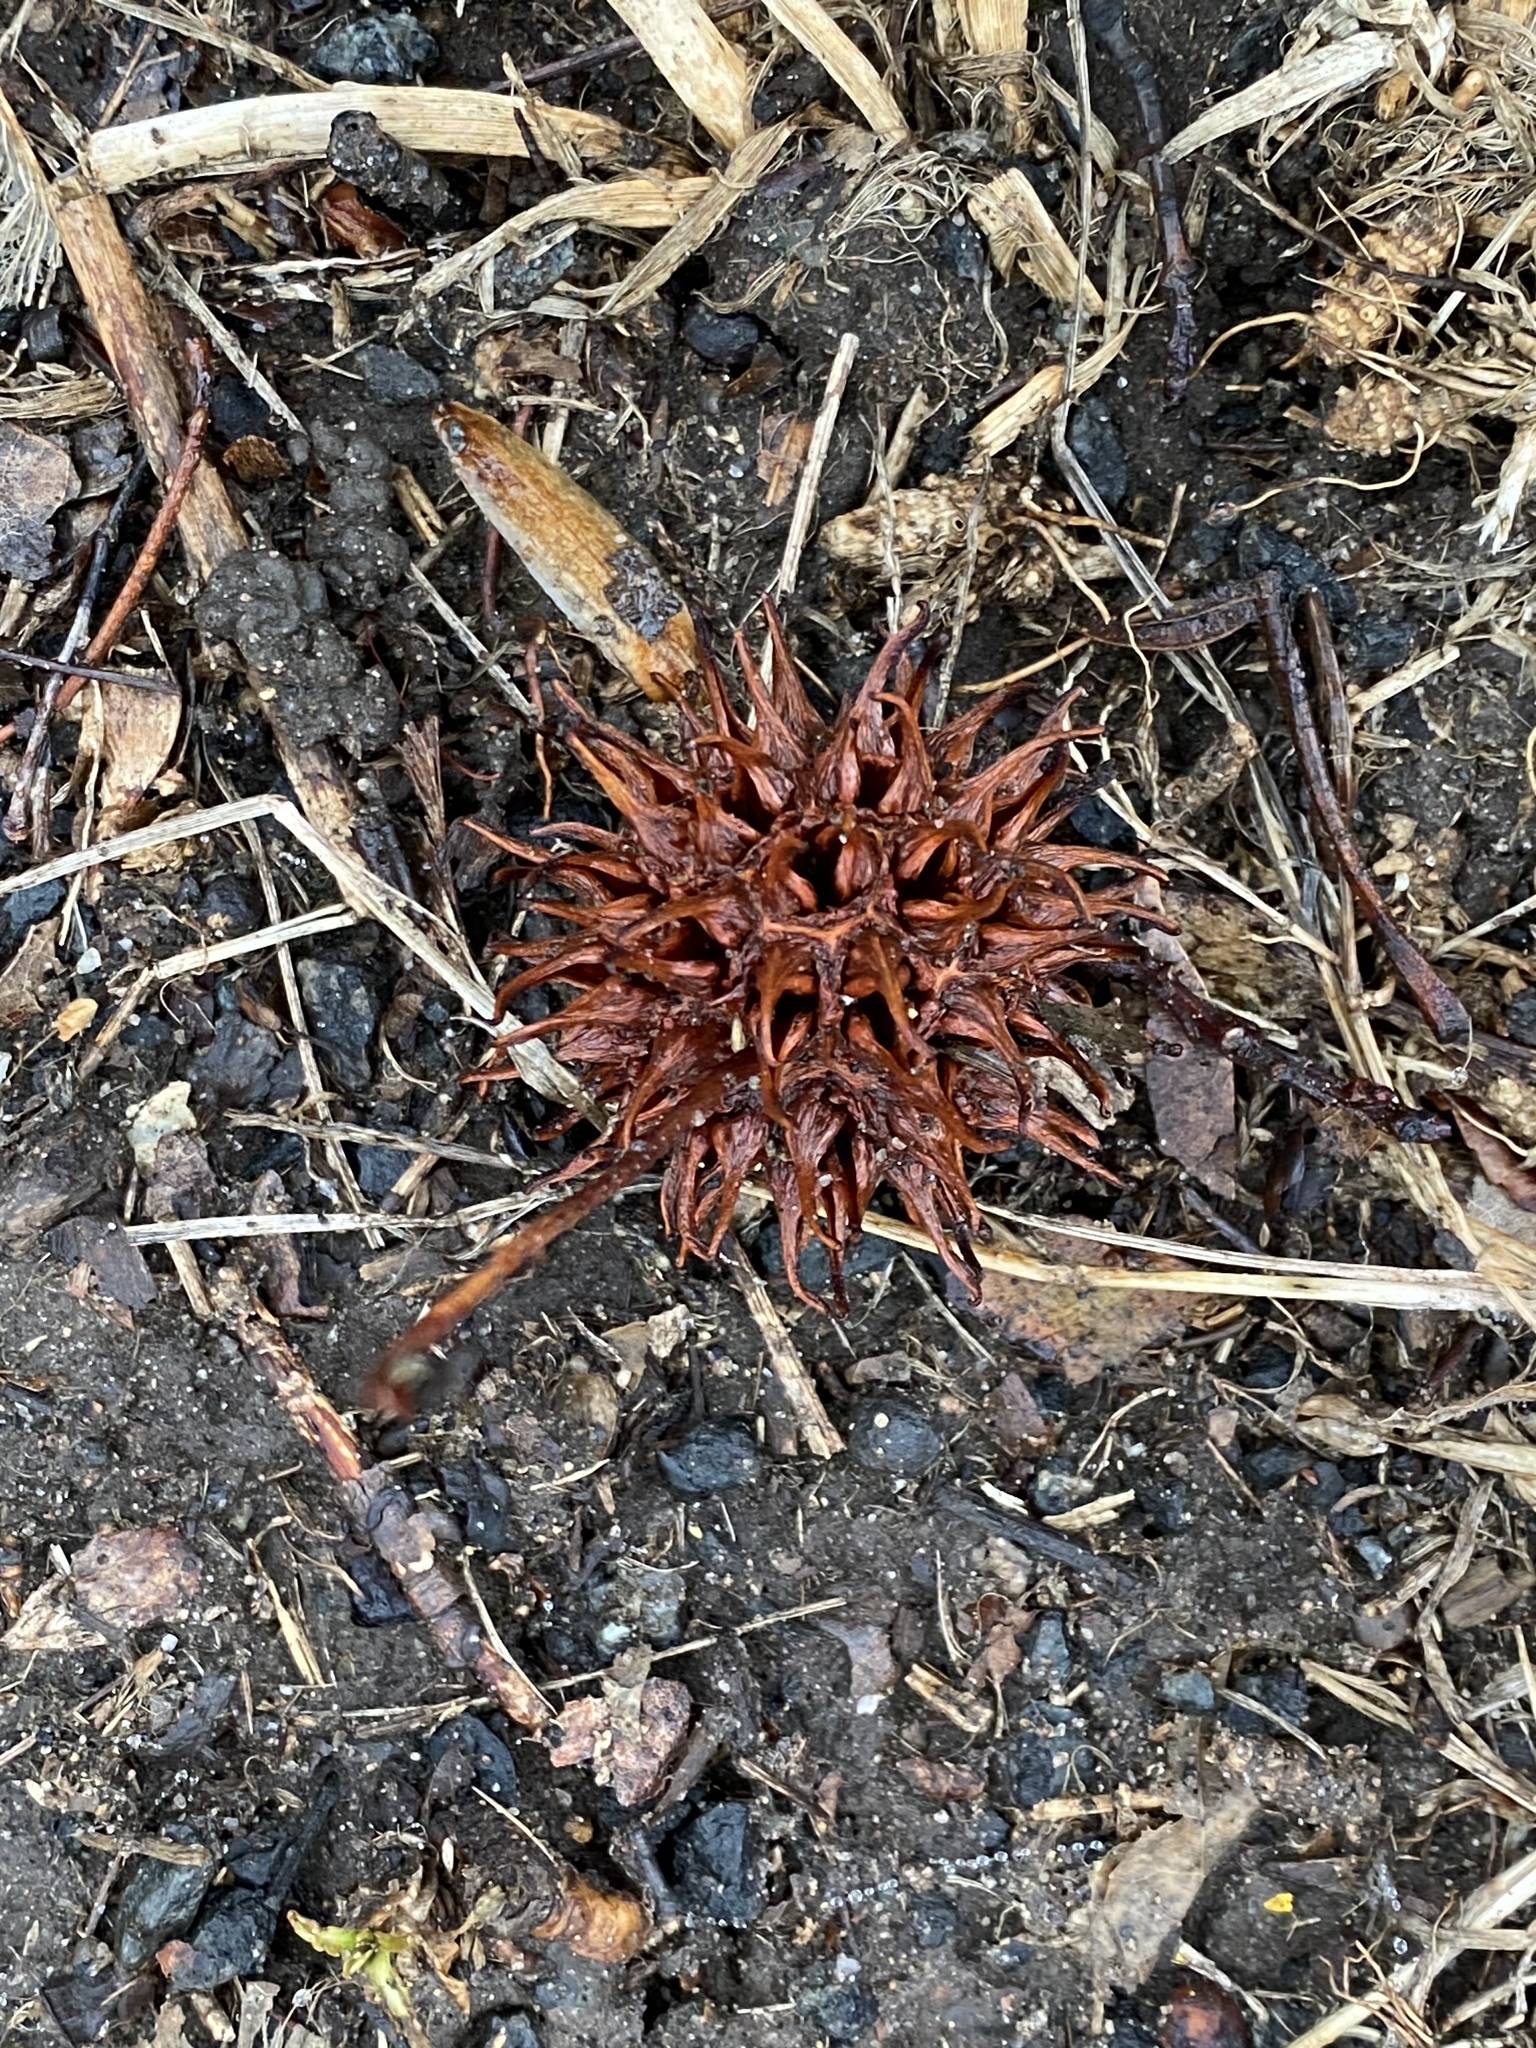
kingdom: Plantae
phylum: Tracheophyta
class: Magnoliopsida
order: Saxifragales
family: Altingiaceae
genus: Liquidambar
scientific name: Liquidambar styraciflua
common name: Sweet gum
